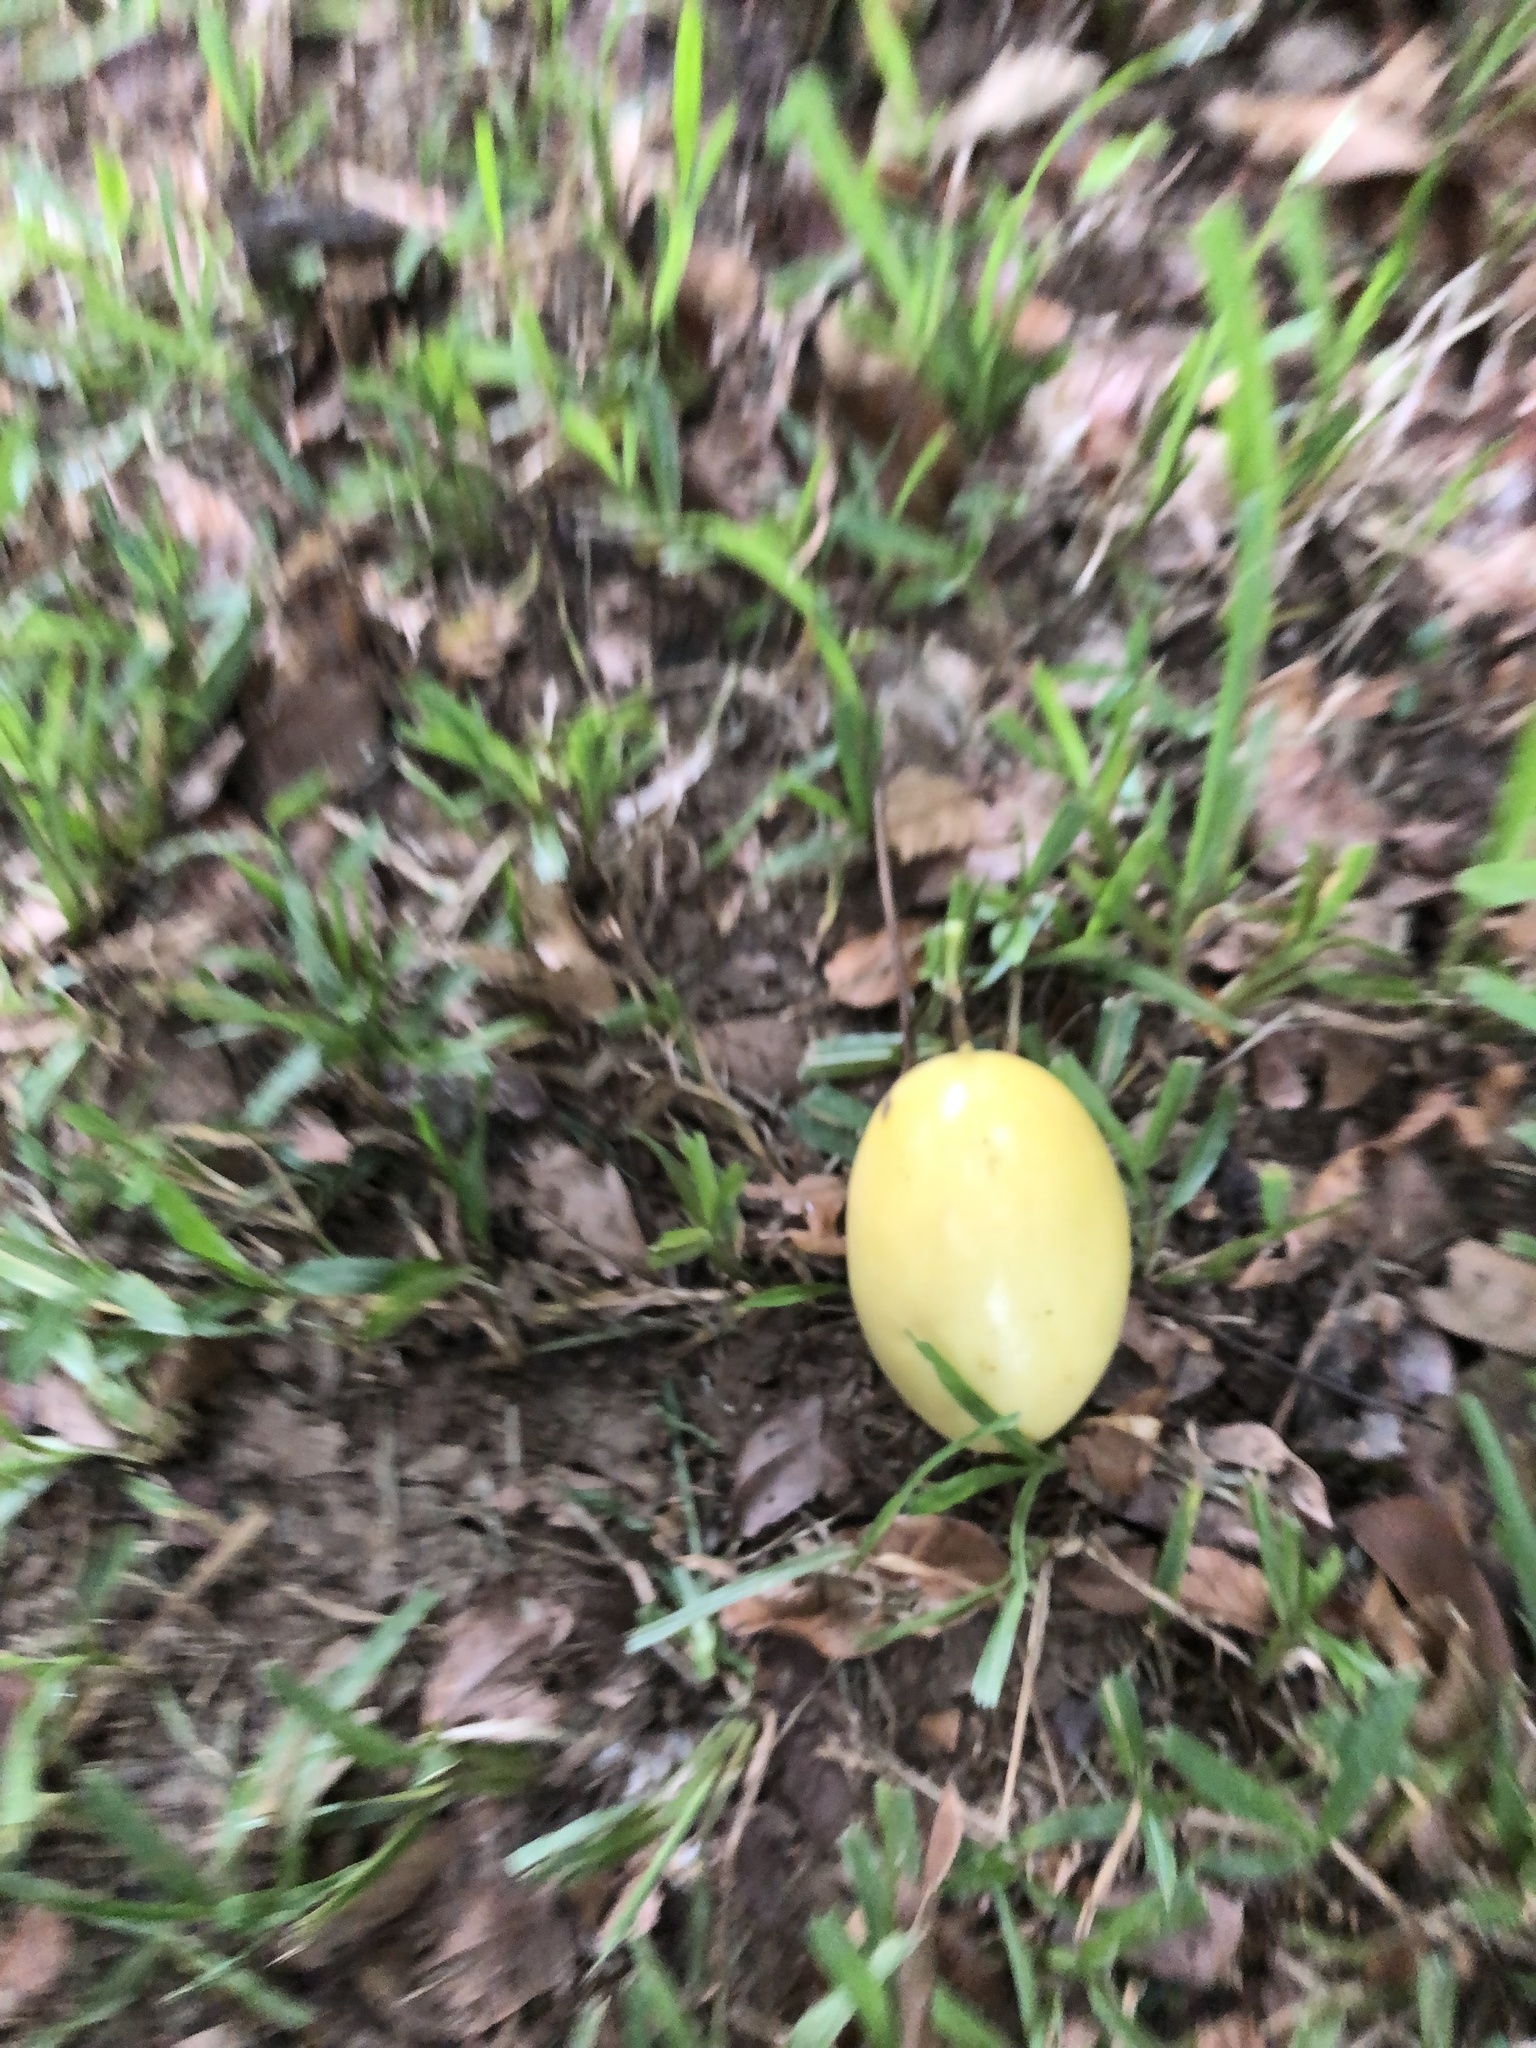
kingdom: Plantae
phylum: Tracheophyta
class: Magnoliopsida
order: Malpighiales
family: Passifloraceae
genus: Passiflora
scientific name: Passiflora edulis
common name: Purple granadilla
